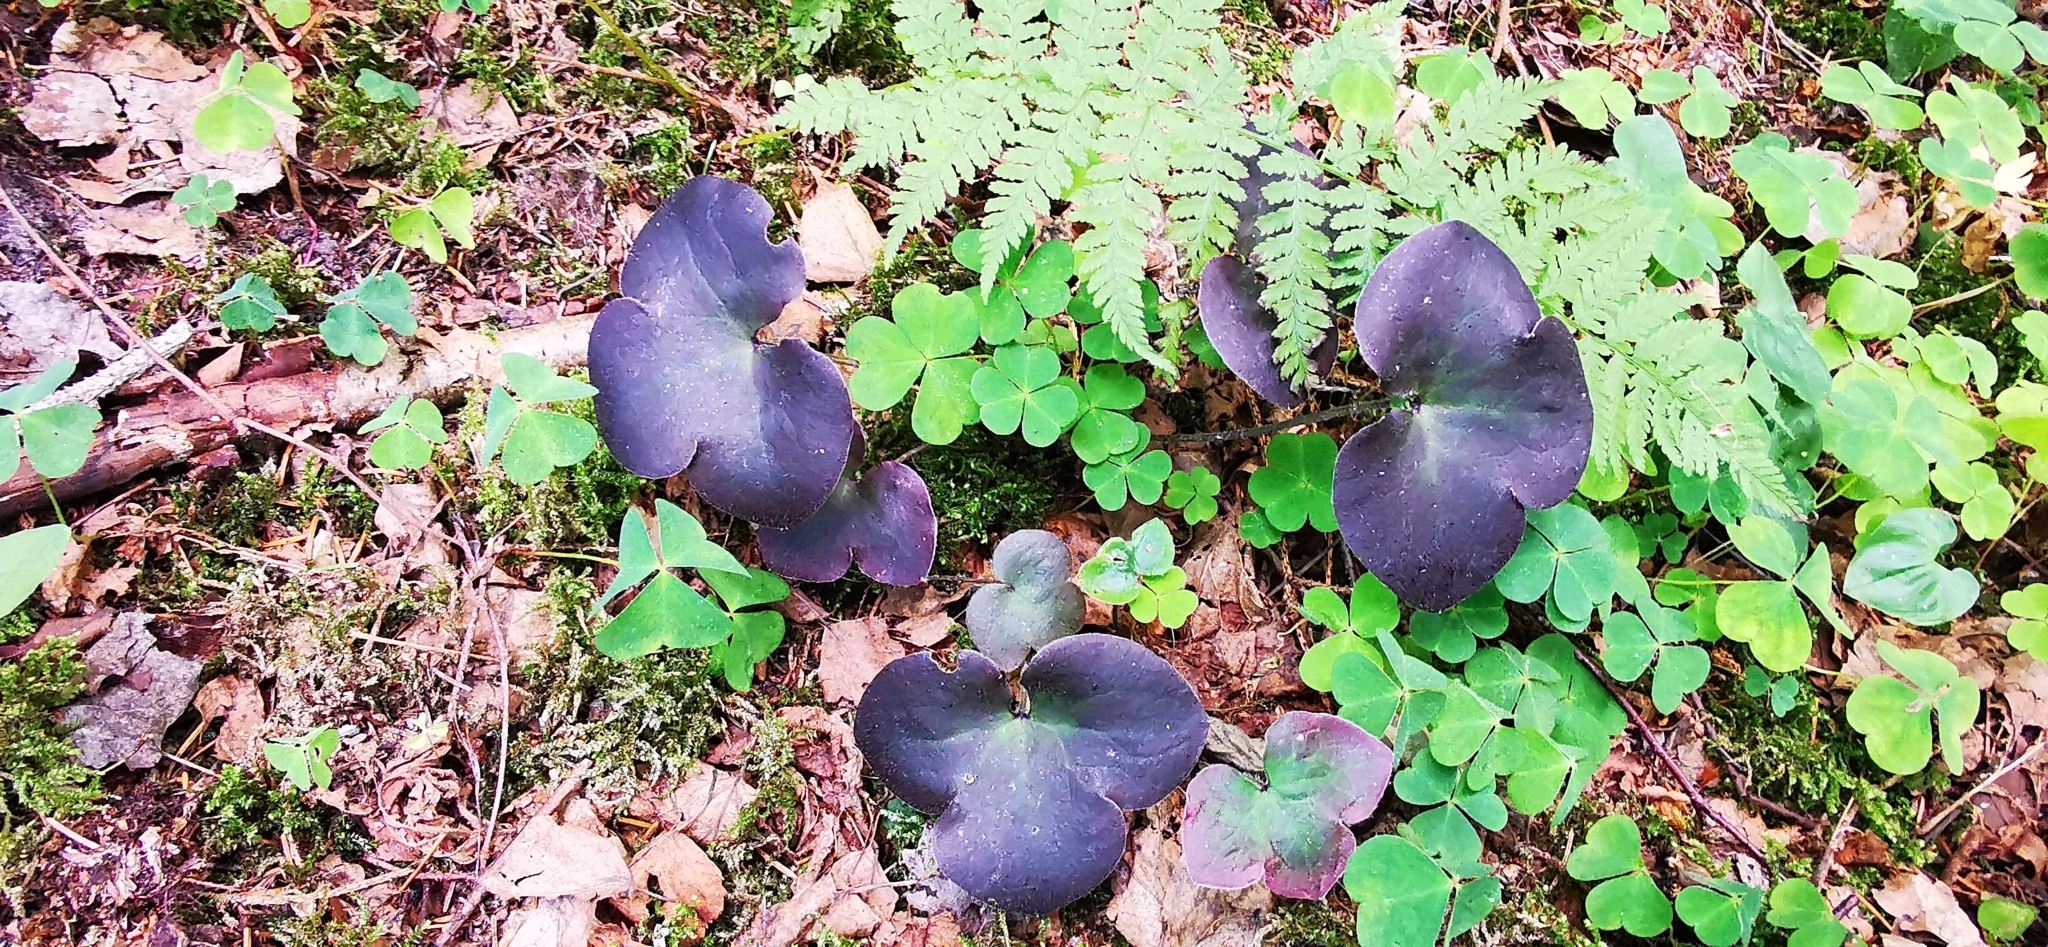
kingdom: Plantae
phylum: Tracheophyta
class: Magnoliopsida
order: Ranunculales
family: Ranunculaceae
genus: Hepatica
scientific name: Hepatica nobilis
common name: Liverleaf
